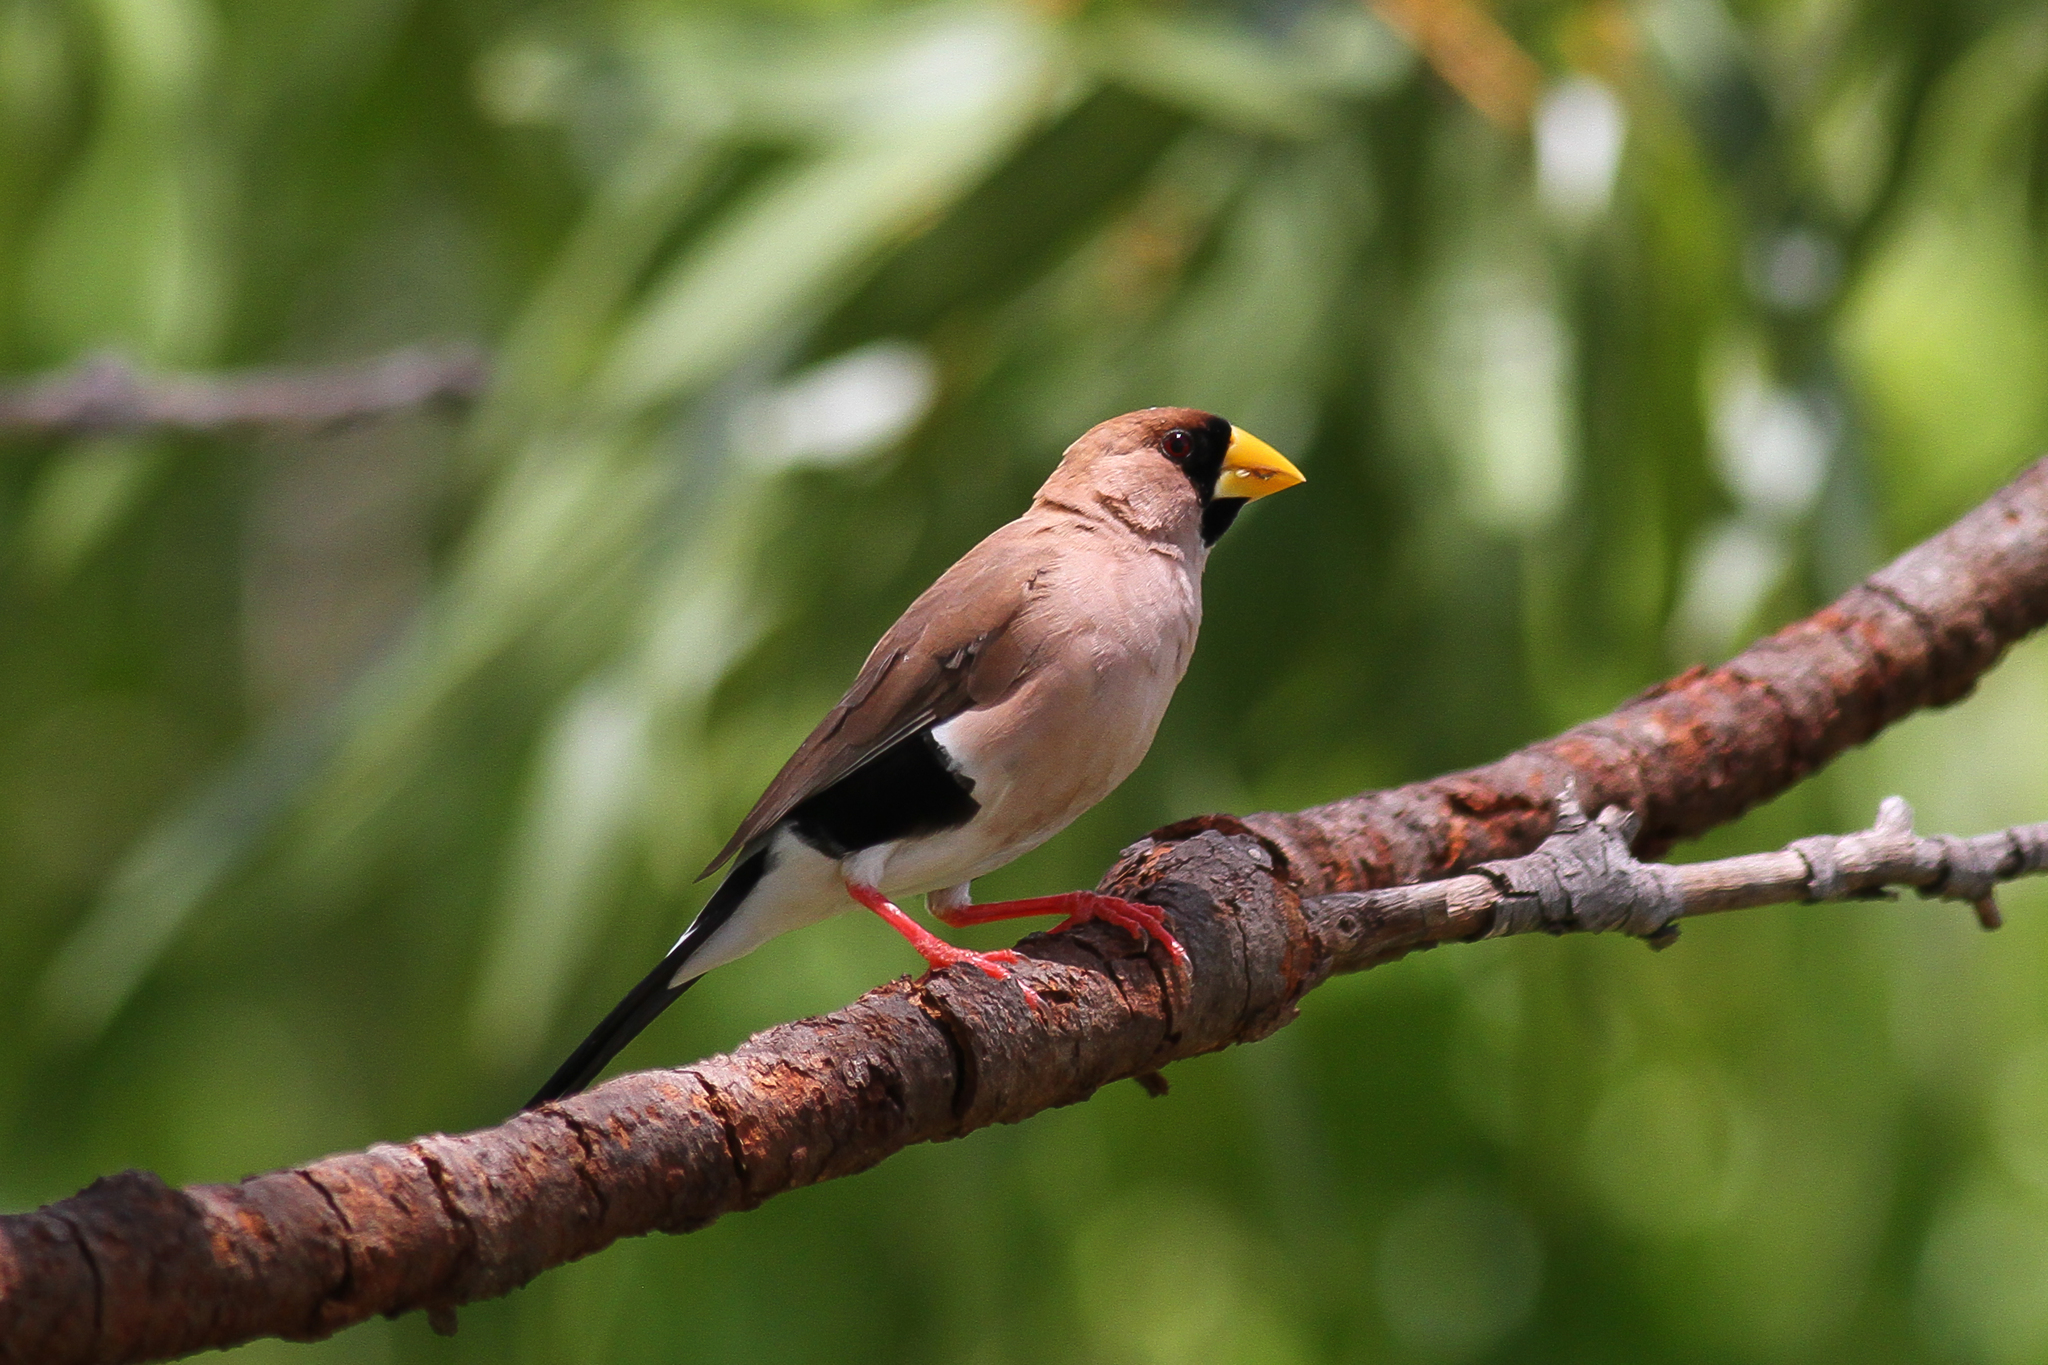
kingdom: Animalia
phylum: Chordata
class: Aves
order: Passeriformes
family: Estrildidae
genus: Poephila
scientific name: Poephila personata
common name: Masked finch
